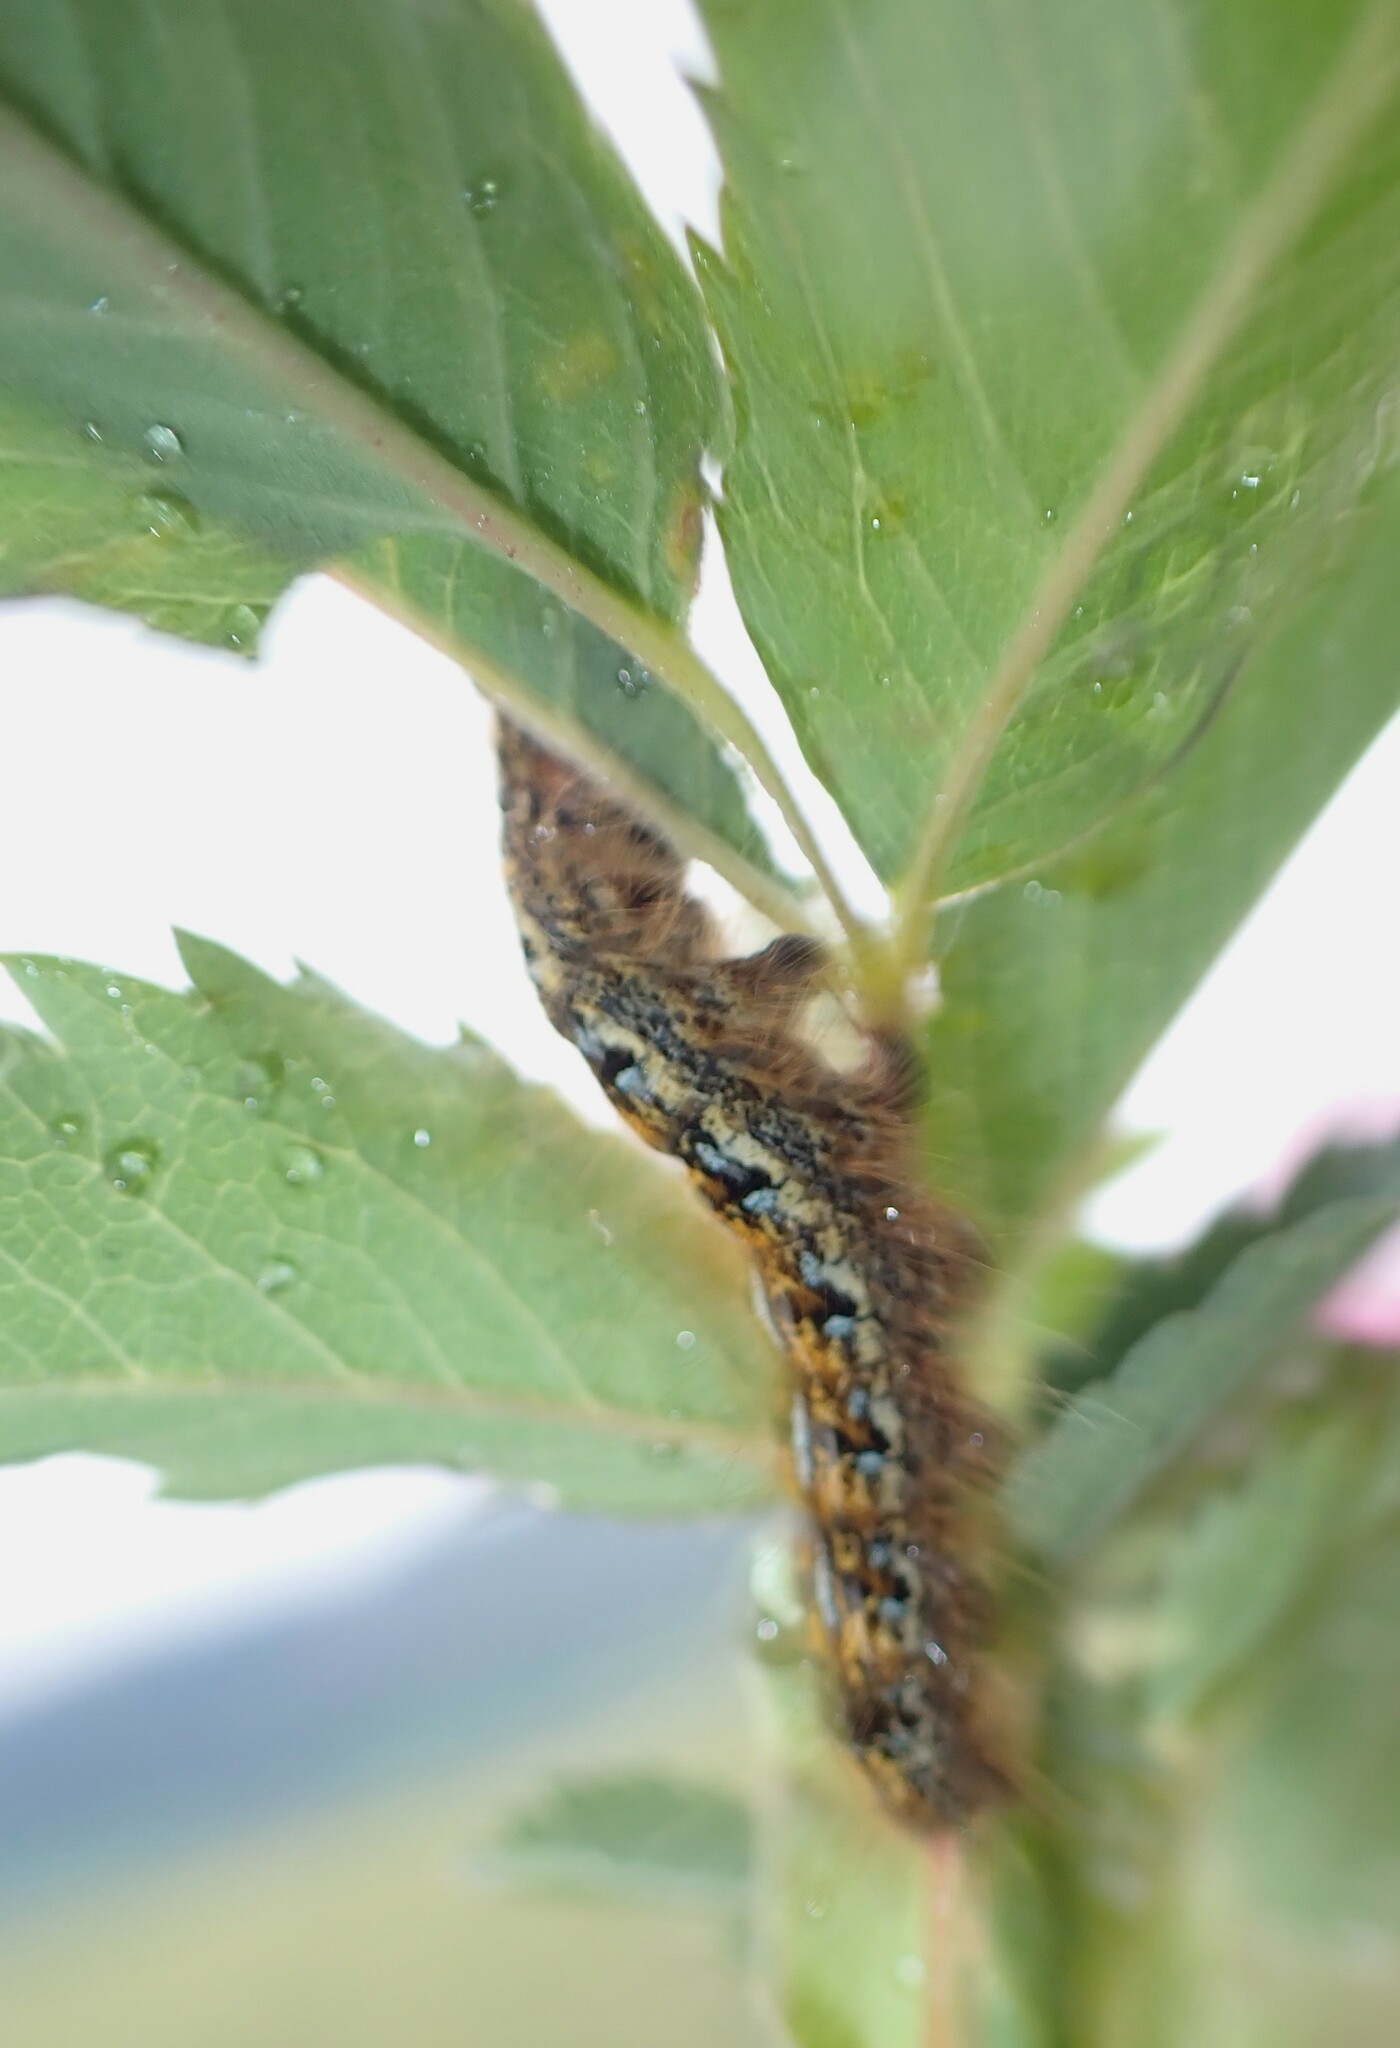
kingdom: Animalia
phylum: Arthropoda
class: Insecta
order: Lepidoptera
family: Lasiocampidae
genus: Malacosoma
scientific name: Malacosoma californica
